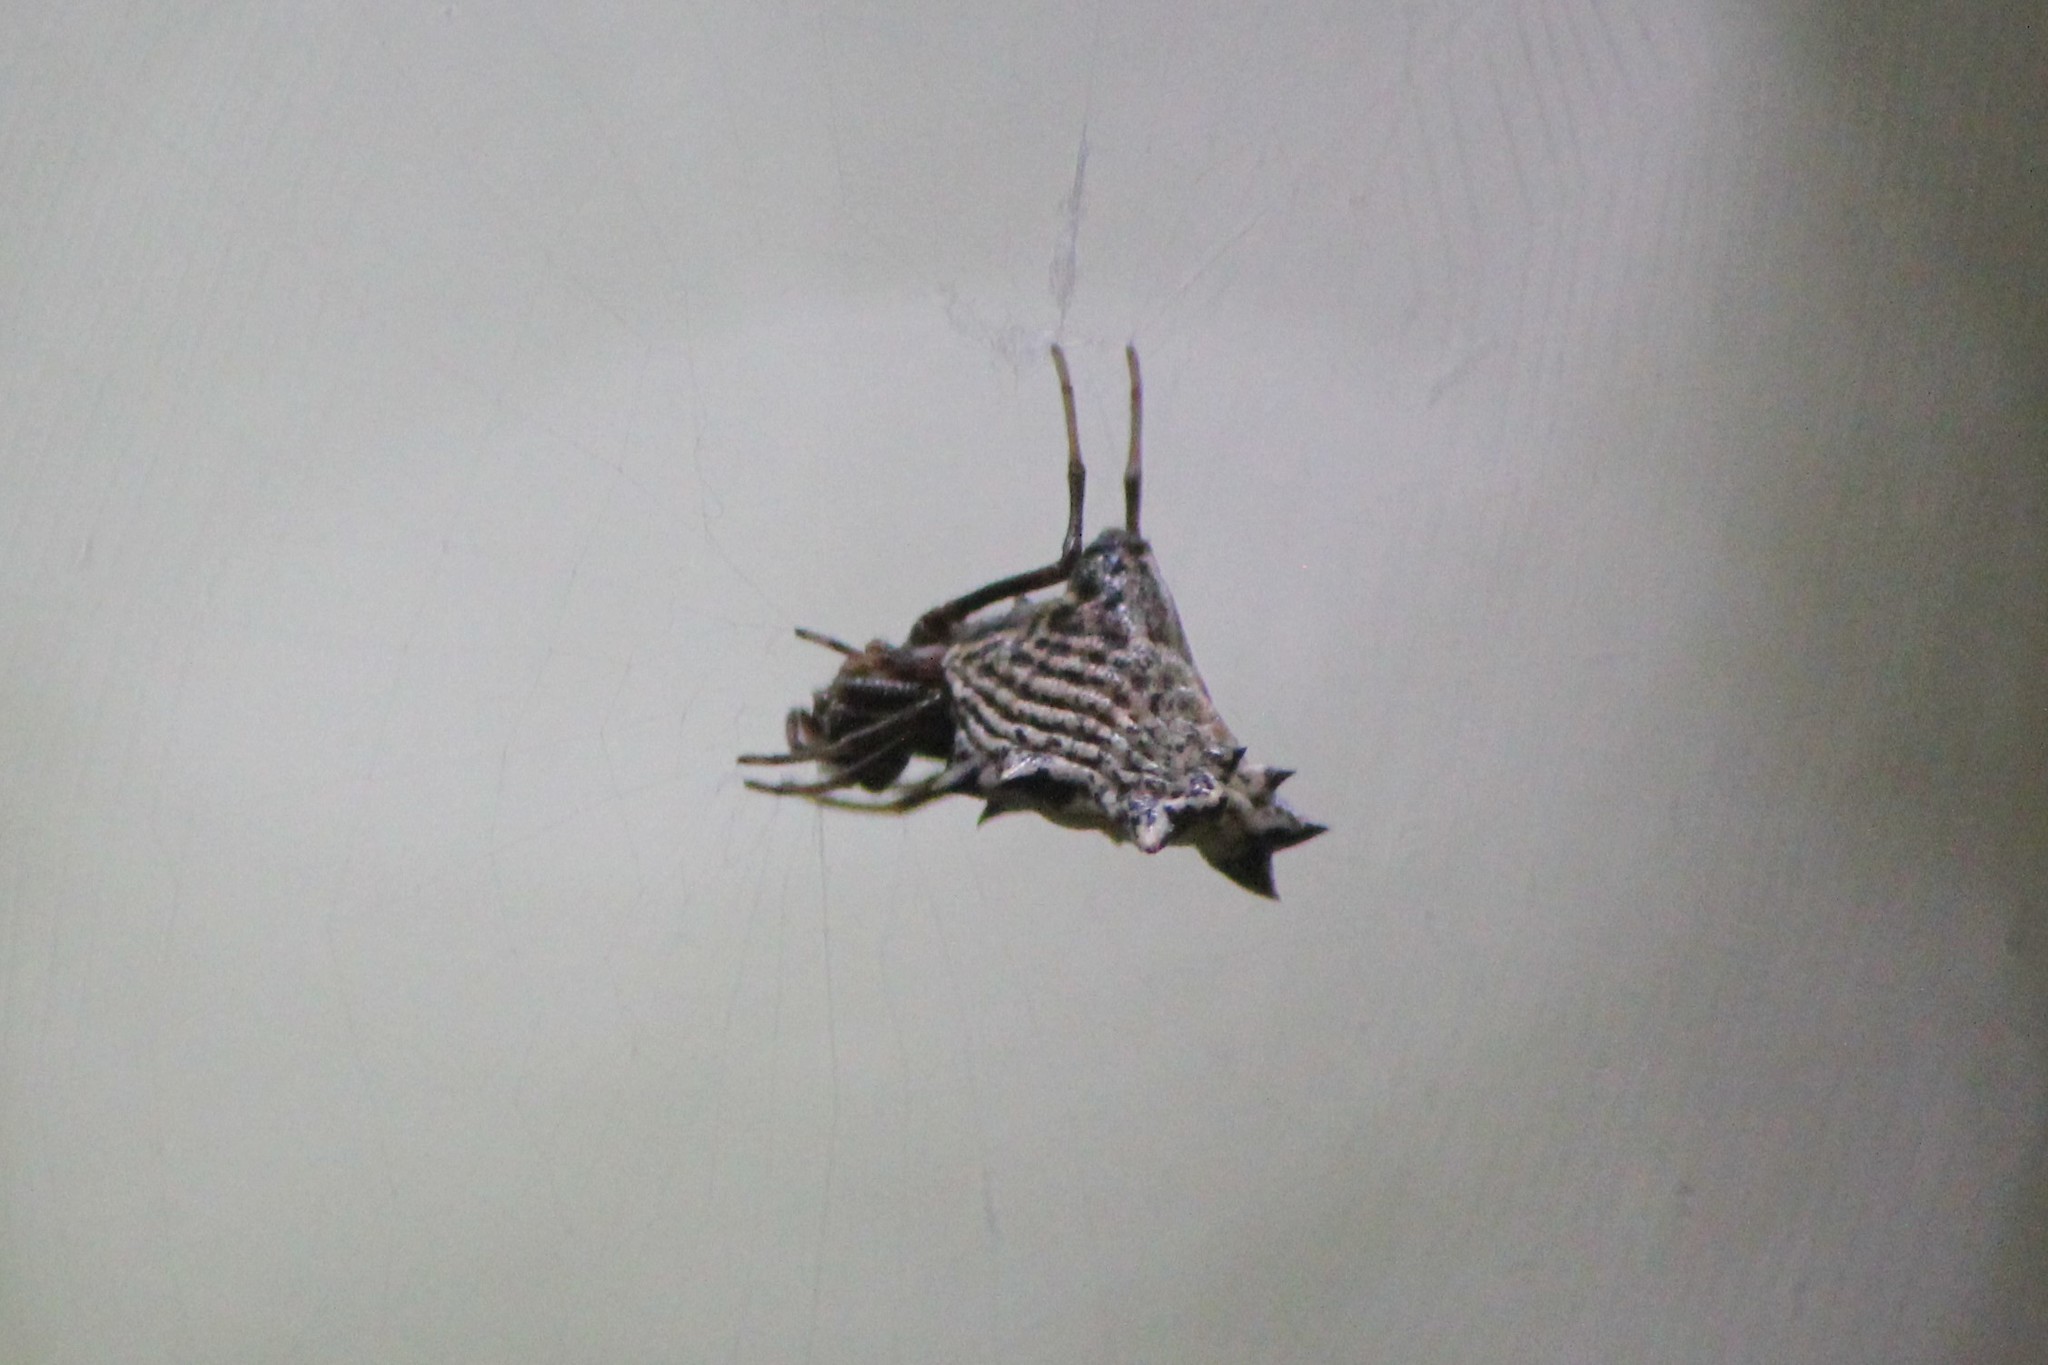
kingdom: Animalia
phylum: Arthropoda
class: Arachnida
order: Araneae
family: Araneidae
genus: Micrathena
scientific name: Micrathena gracilis
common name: Orb weavers
